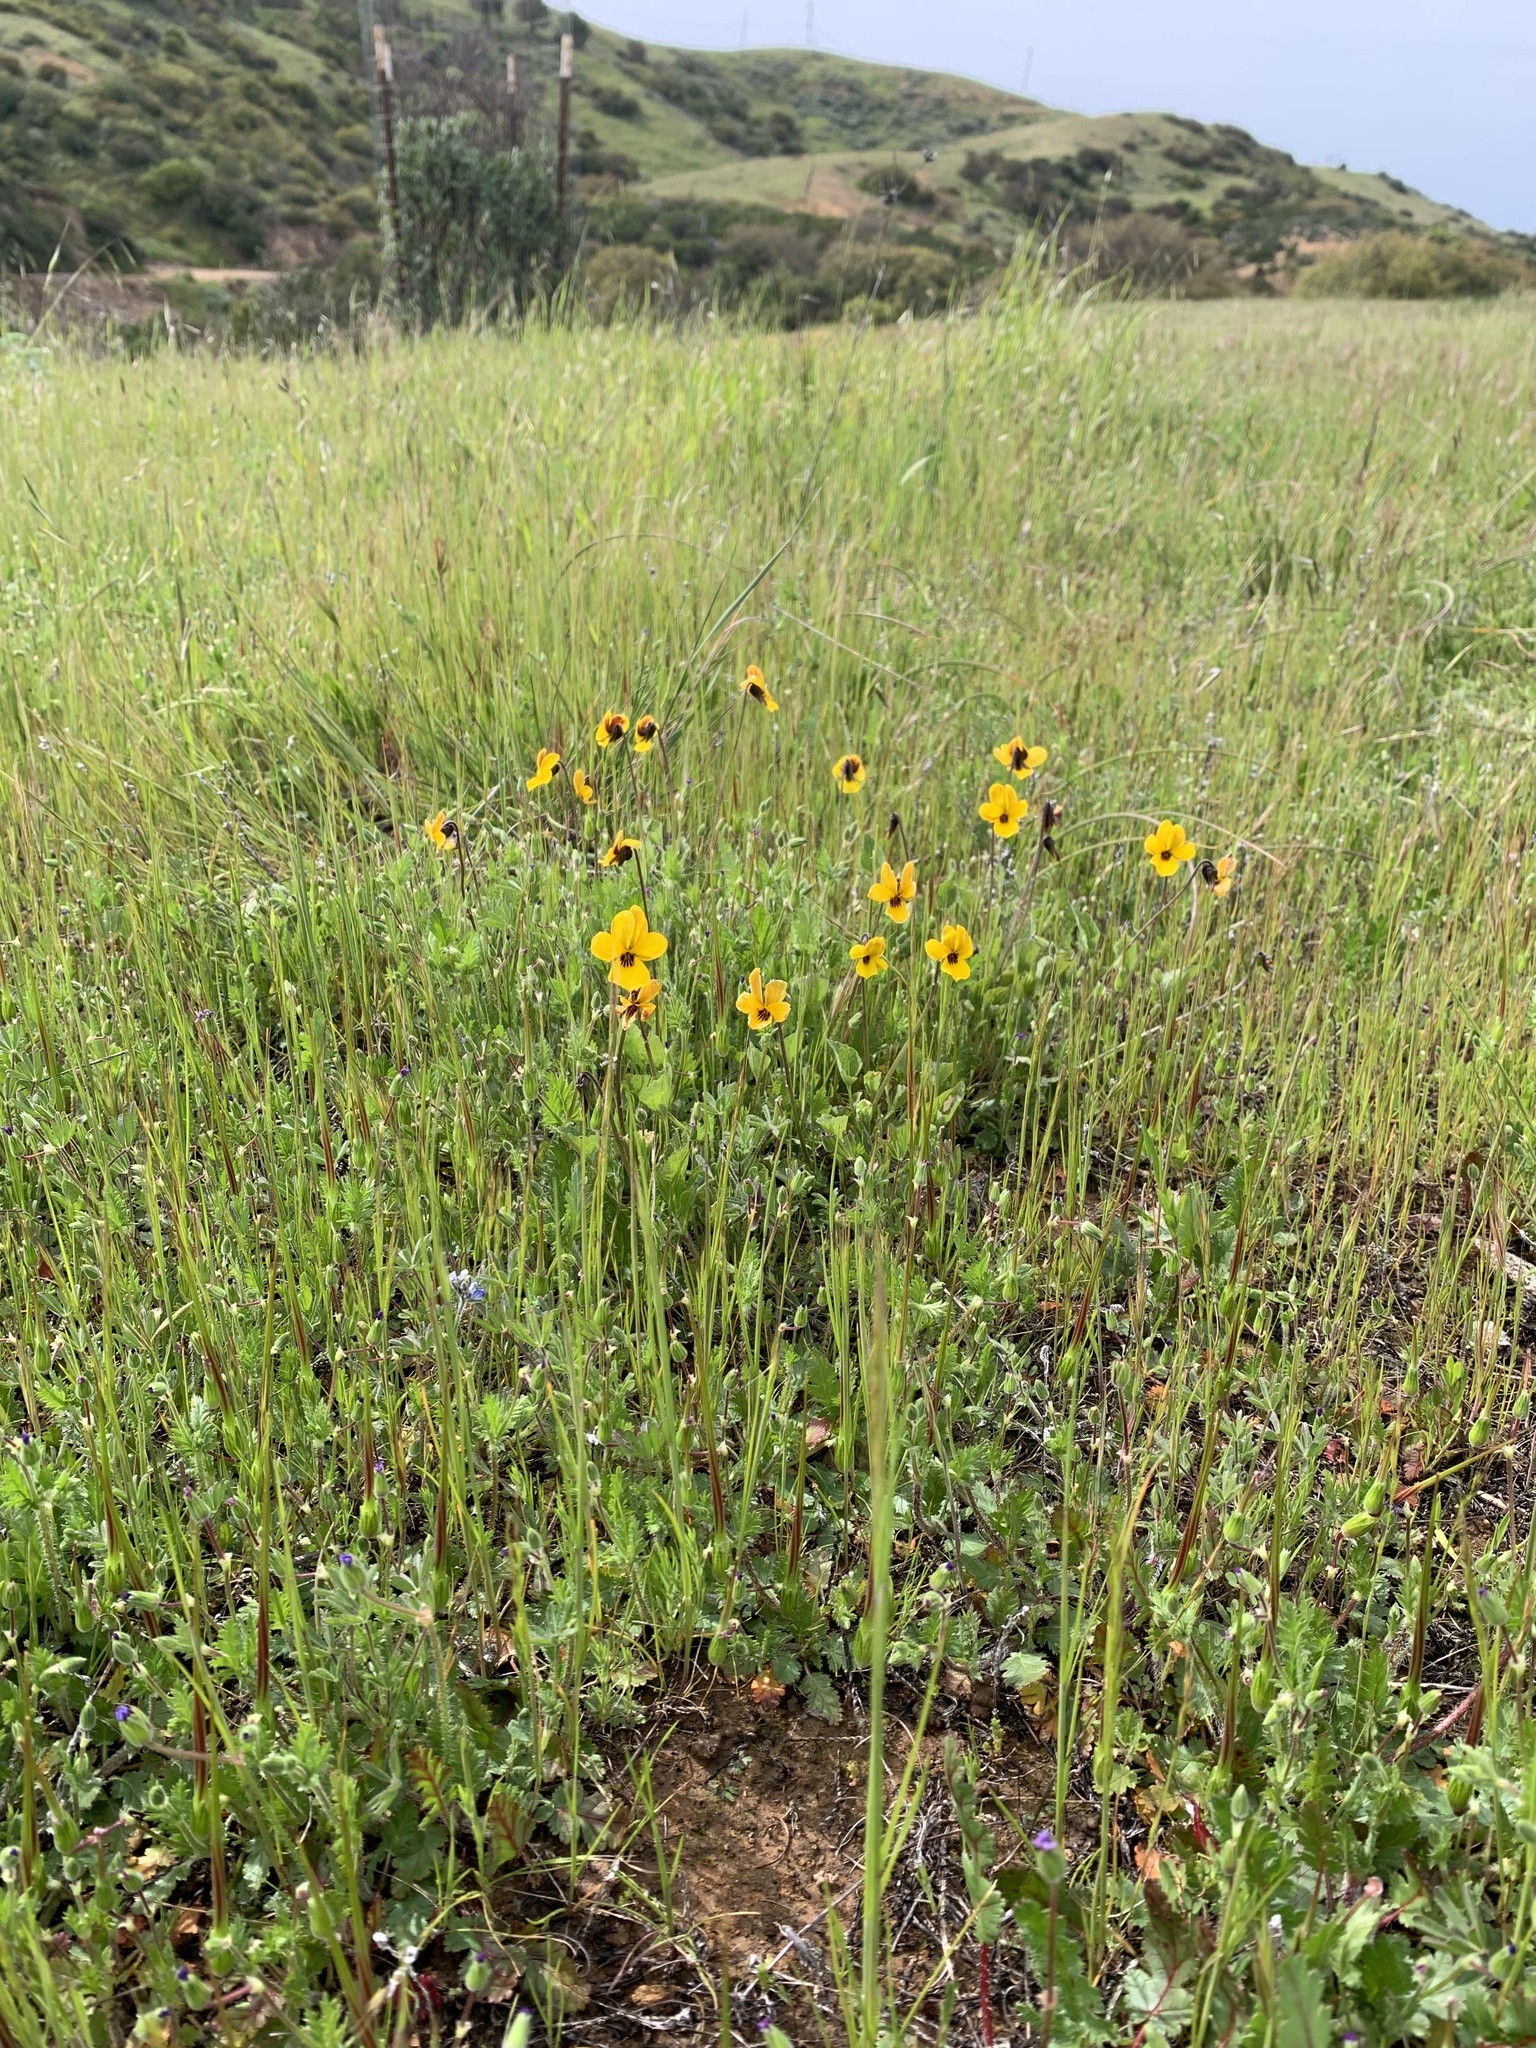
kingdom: Plantae
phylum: Tracheophyta
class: Magnoliopsida
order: Malpighiales
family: Violaceae
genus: Viola
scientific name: Viola pedunculata
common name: California golden violet
